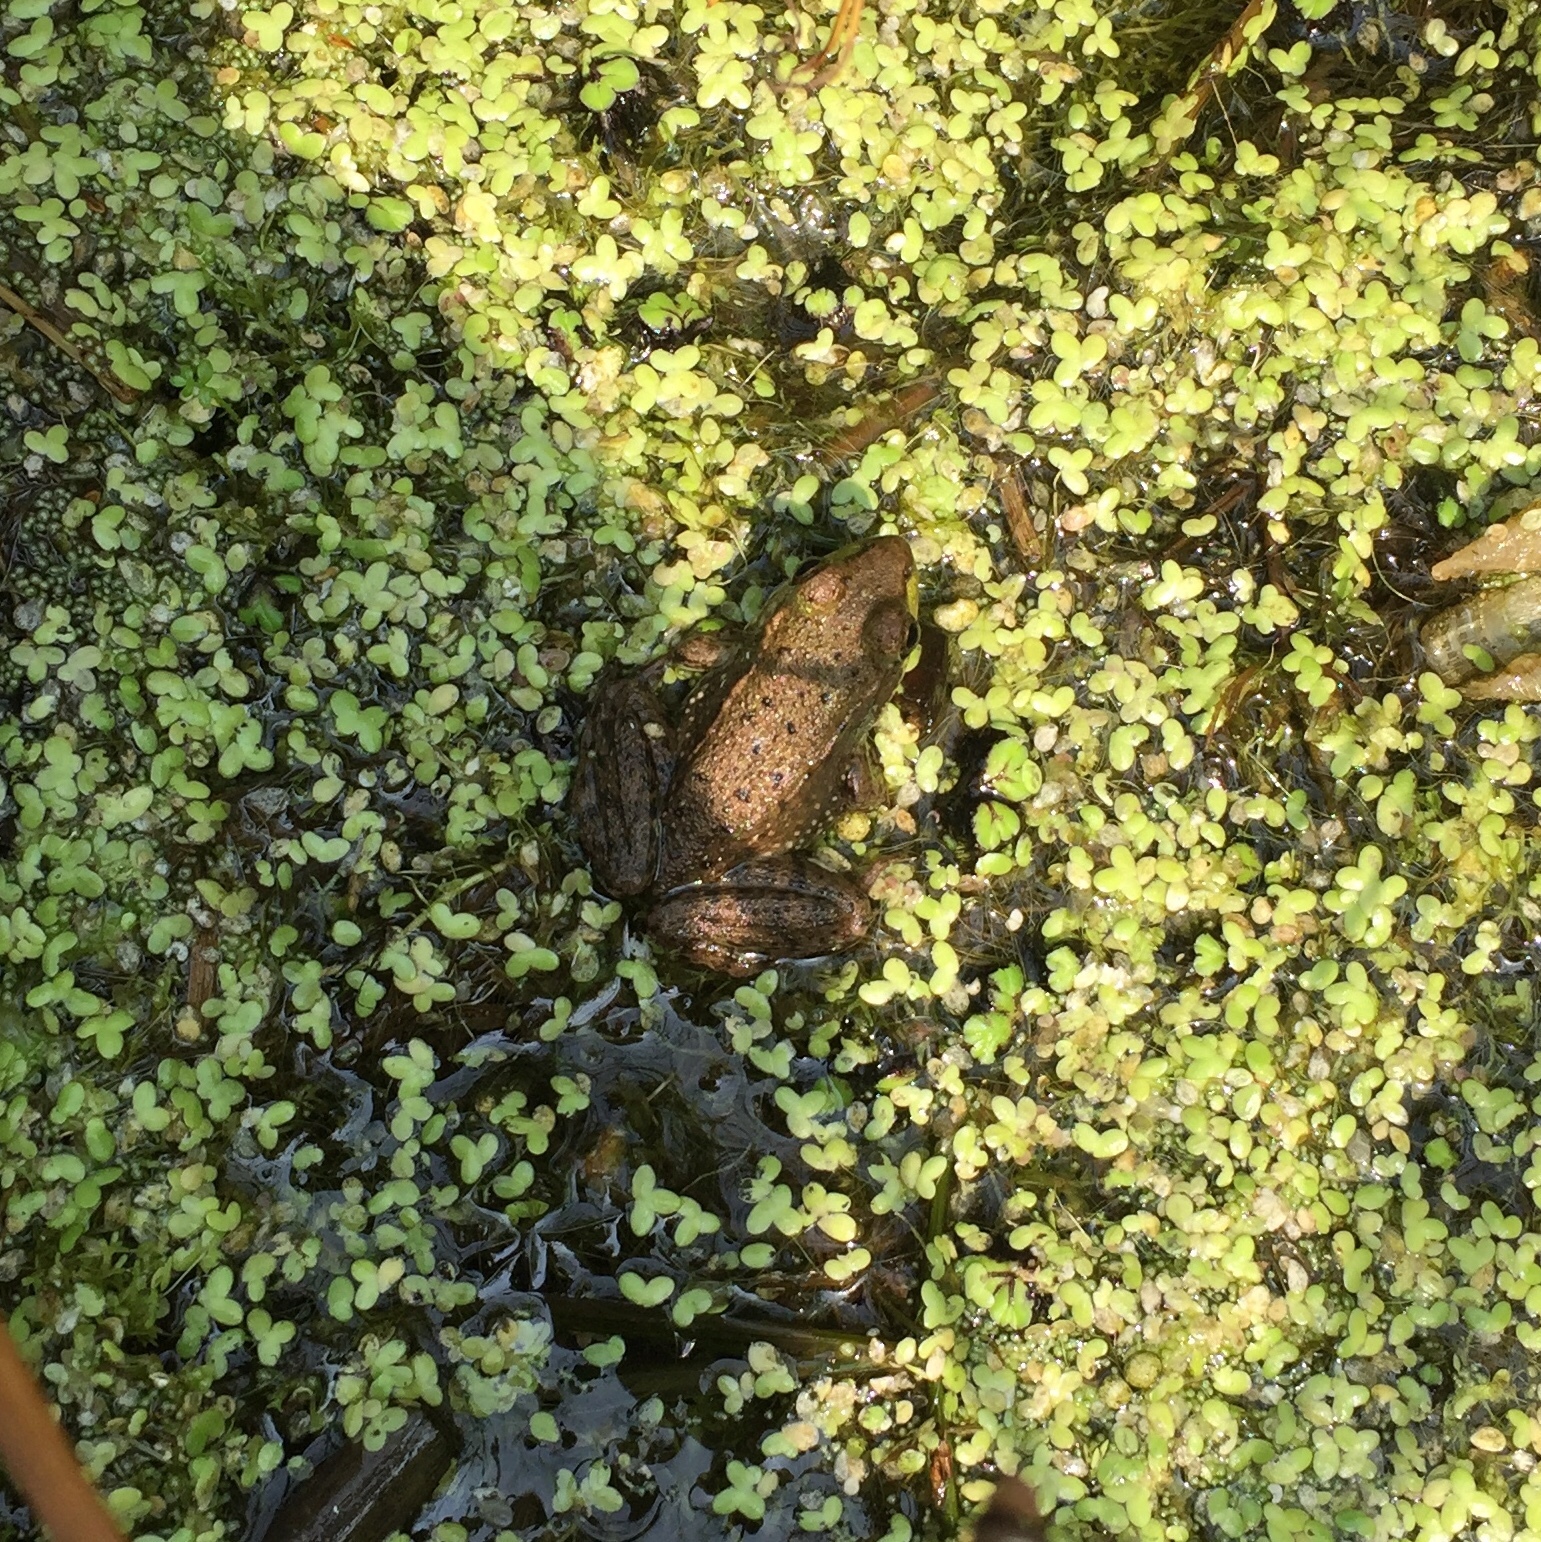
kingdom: Animalia
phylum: Chordata
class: Amphibia
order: Anura
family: Ranidae
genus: Lithobates
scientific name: Lithobates clamitans
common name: Green frog
